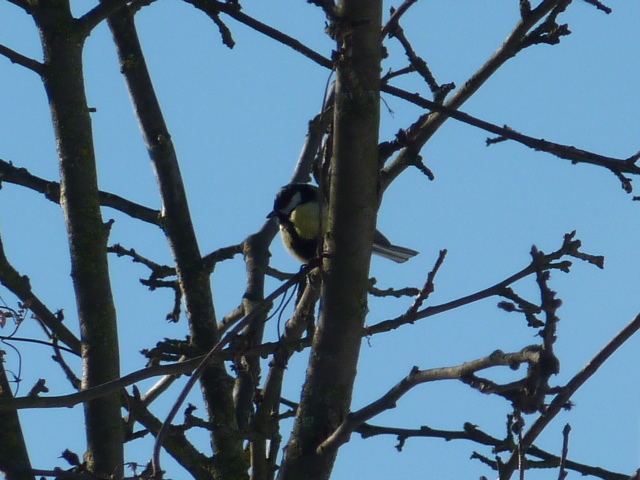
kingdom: Animalia
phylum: Chordata
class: Aves
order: Passeriformes
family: Paridae
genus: Parus
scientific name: Parus major
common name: Great tit
